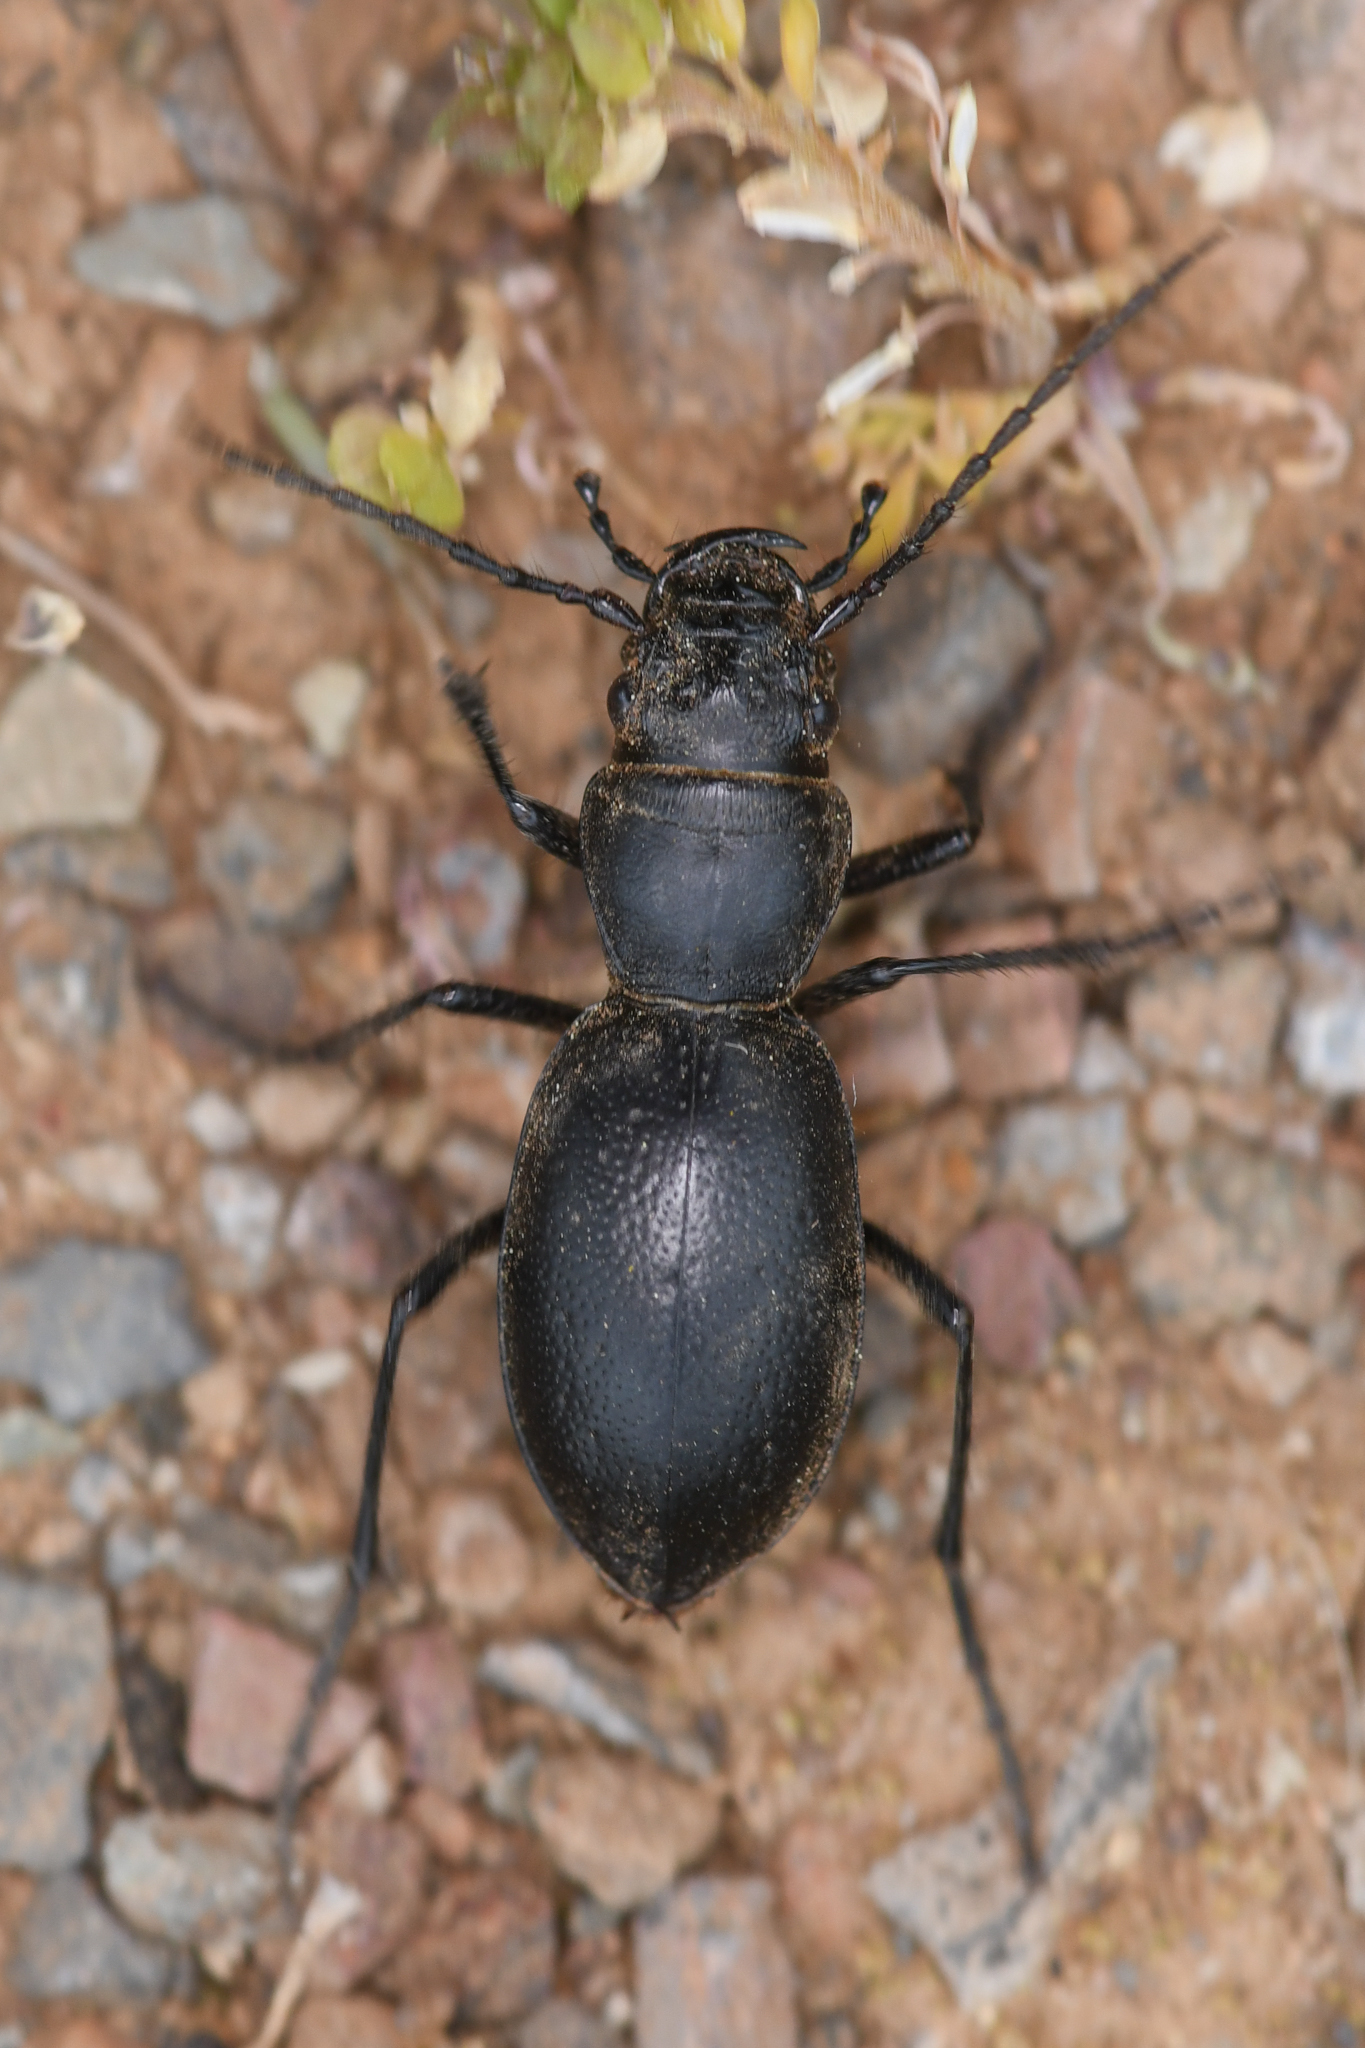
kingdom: Animalia
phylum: Arthropoda
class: Insecta
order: Coleoptera
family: Carabidae
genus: Omus
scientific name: Omus californicus
